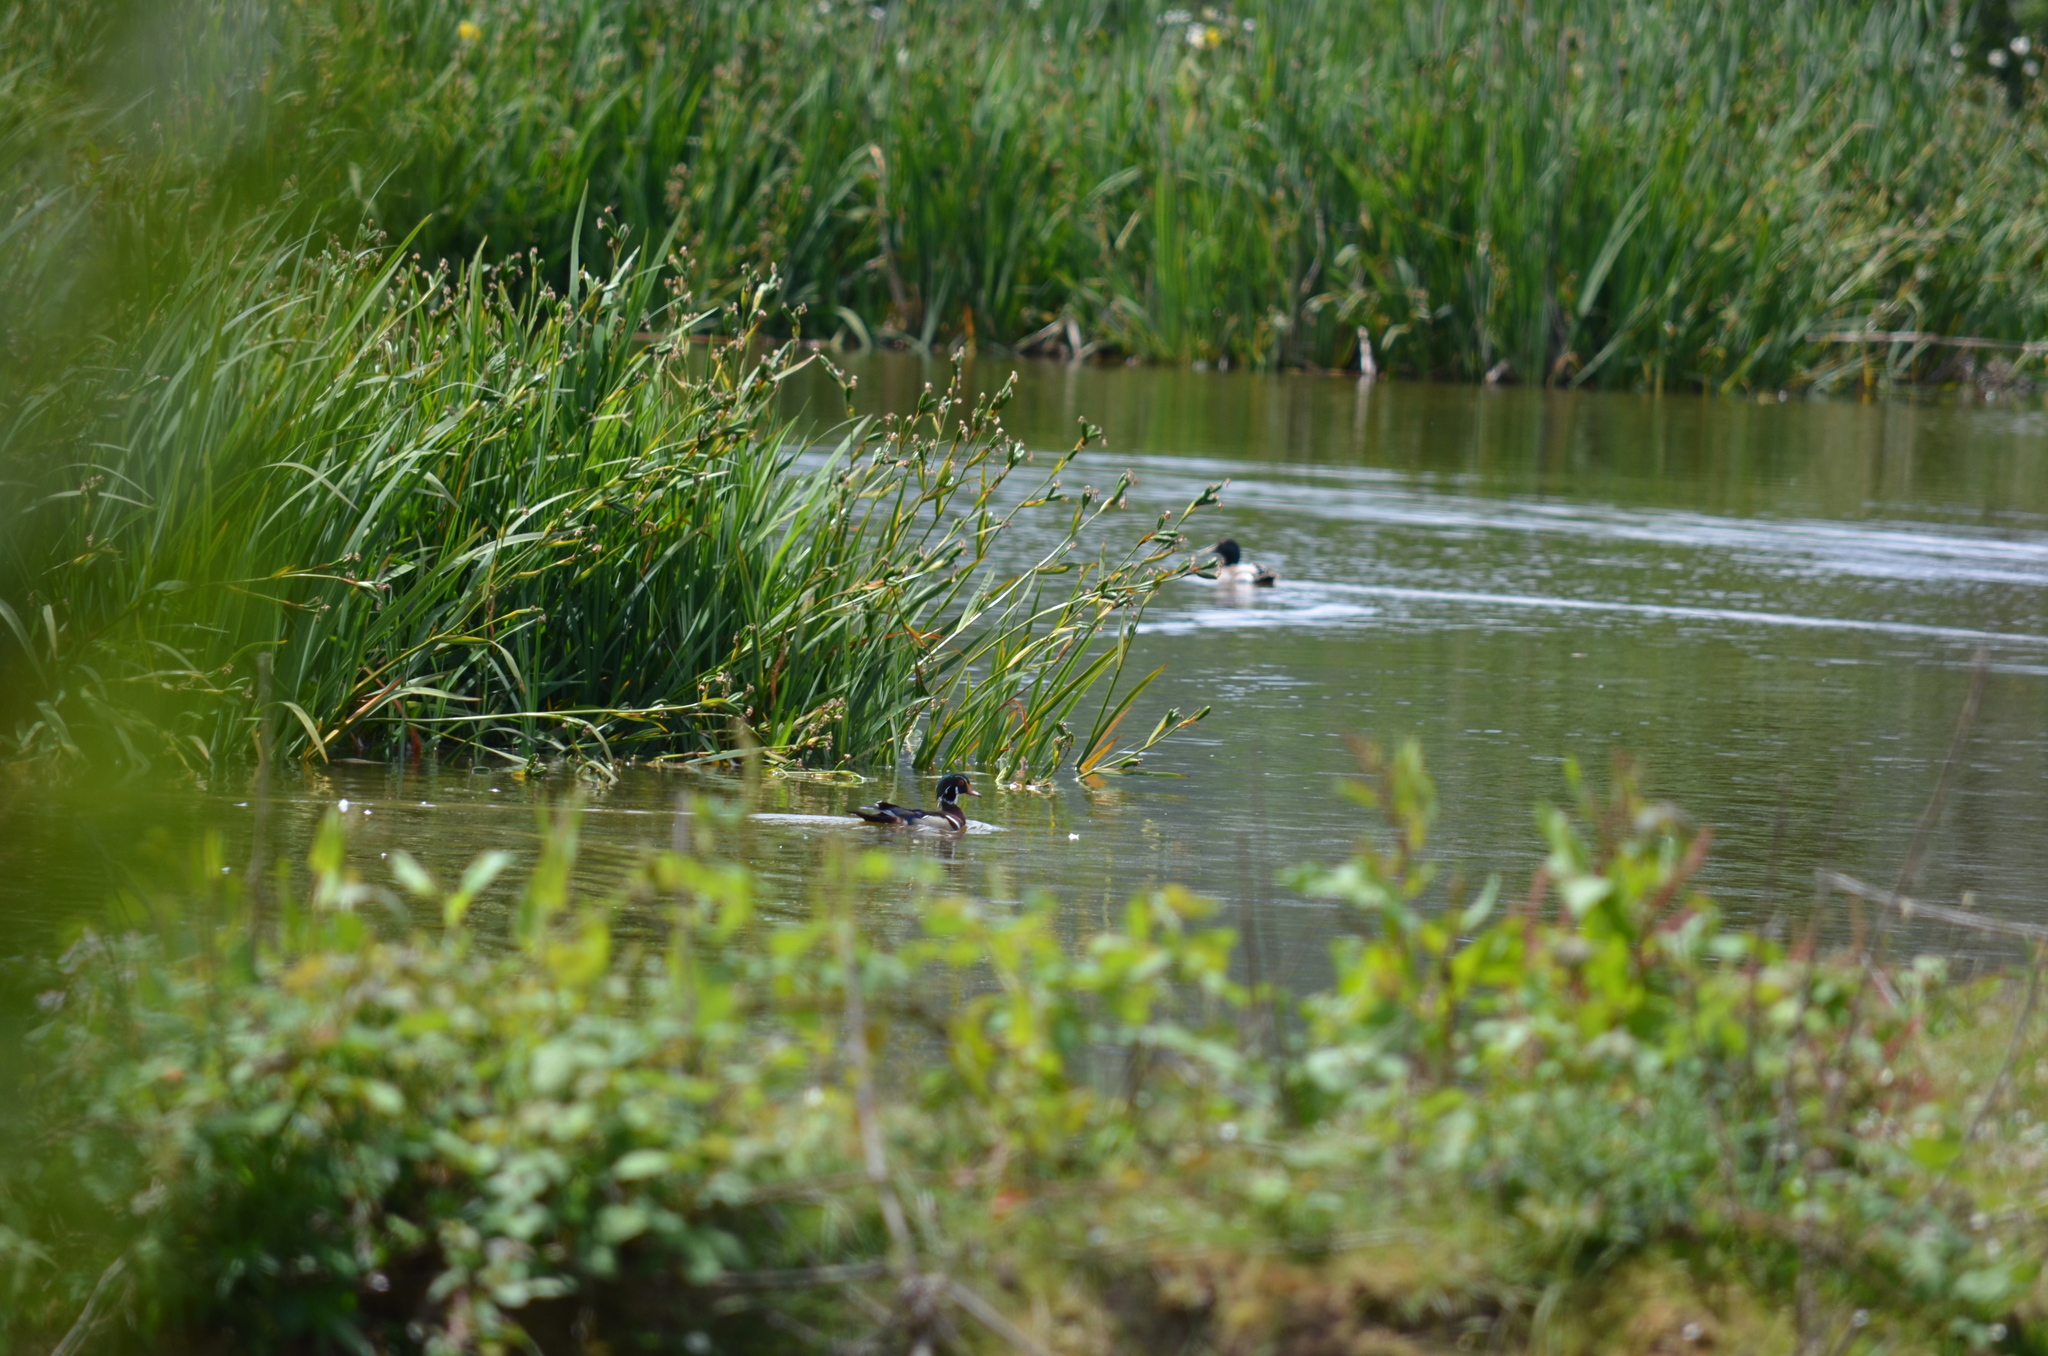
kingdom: Animalia
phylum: Chordata
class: Aves
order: Anseriformes
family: Anatidae
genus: Anas
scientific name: Anas platyrhynchos
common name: Mallard
